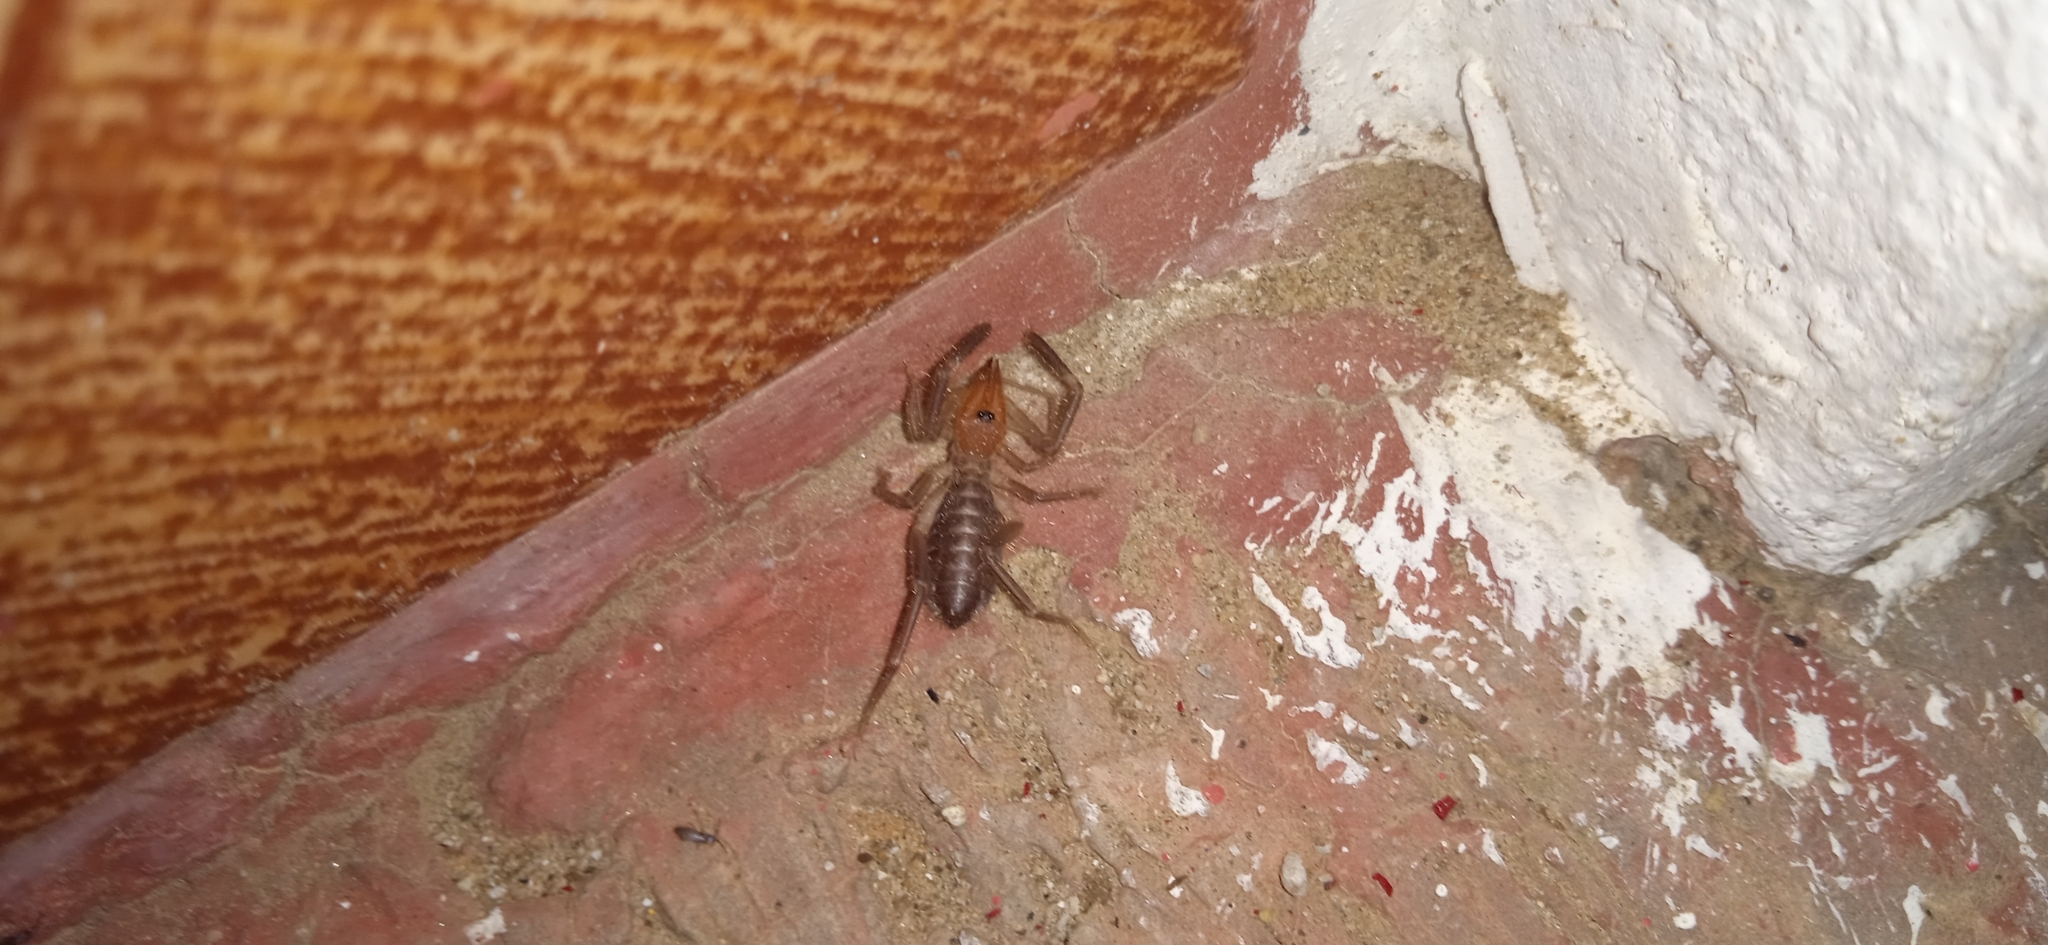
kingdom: Animalia
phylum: Arthropoda
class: Arachnida
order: Solifugae
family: Ammotrechidae
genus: Ammotrecha
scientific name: Ammotrecha chiapasi
